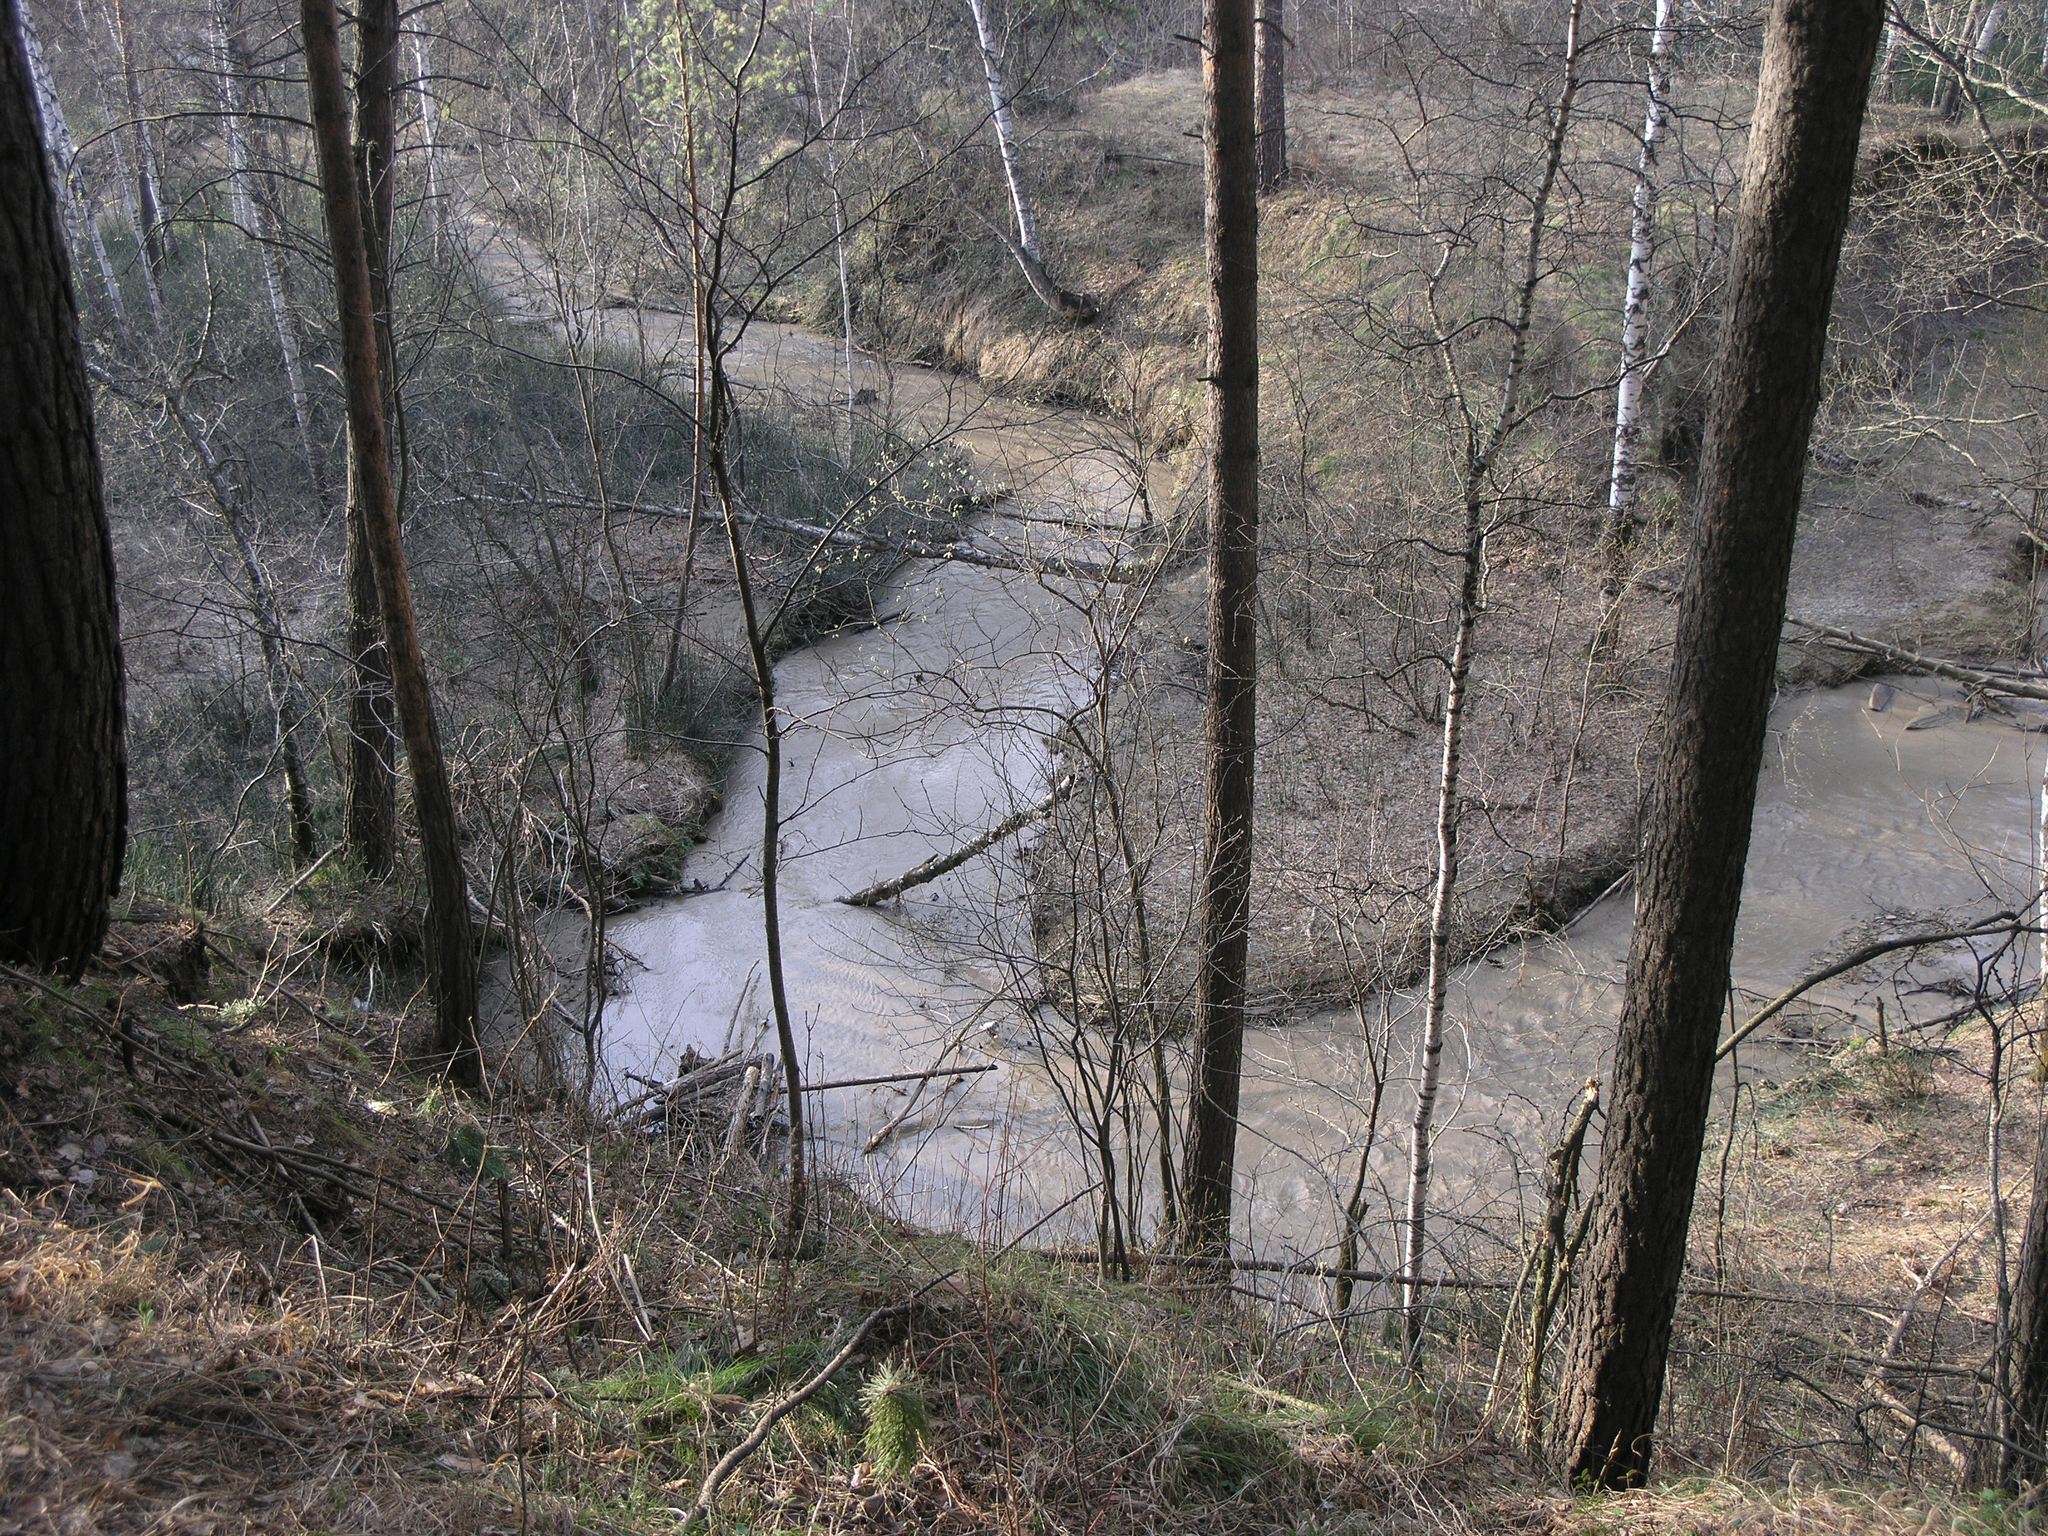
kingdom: Plantae
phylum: Tracheophyta
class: Pinopsida
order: Pinales
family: Pinaceae
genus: Pinus
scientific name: Pinus sylvestris
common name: Scots pine
